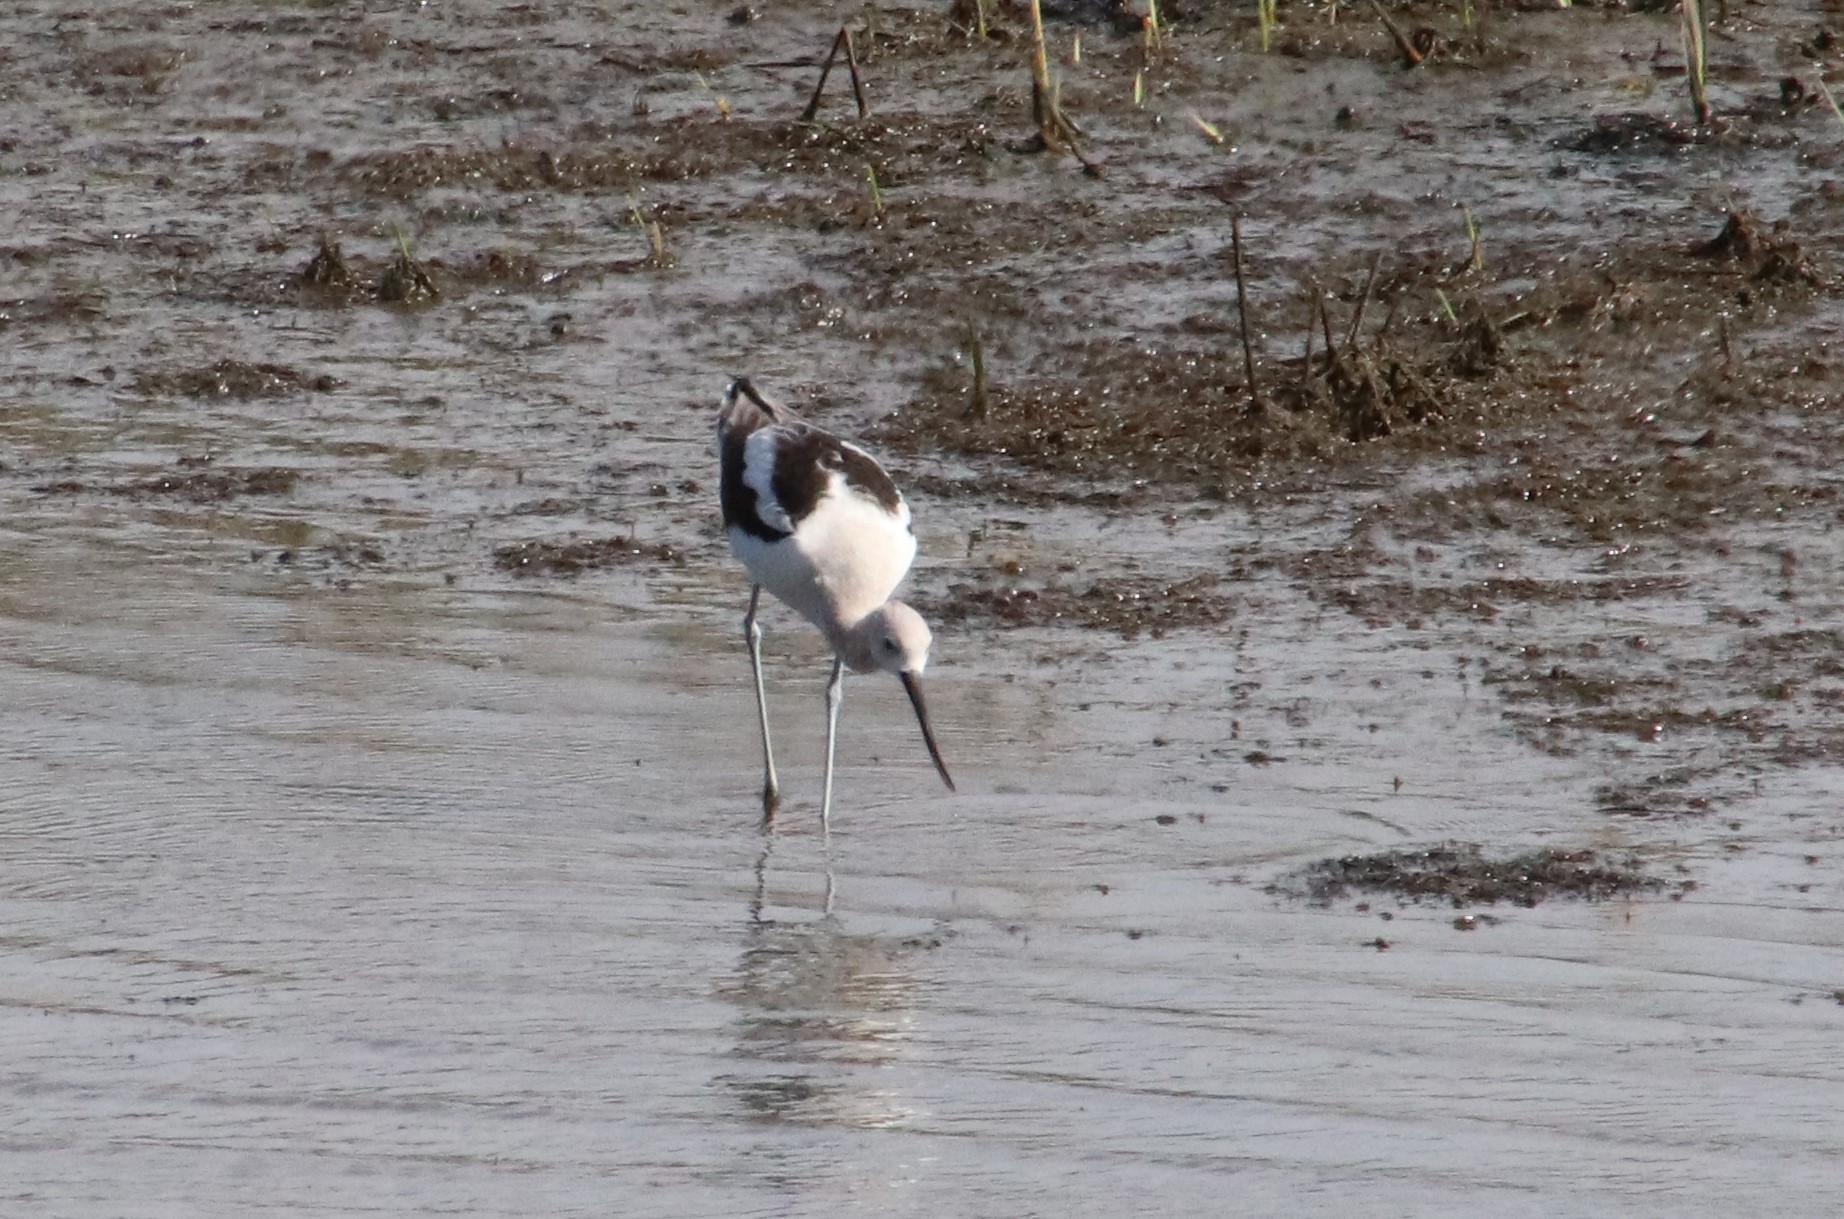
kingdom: Animalia
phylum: Chordata
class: Aves
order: Charadriiformes
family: Recurvirostridae
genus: Recurvirostra
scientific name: Recurvirostra americana
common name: American avocet
